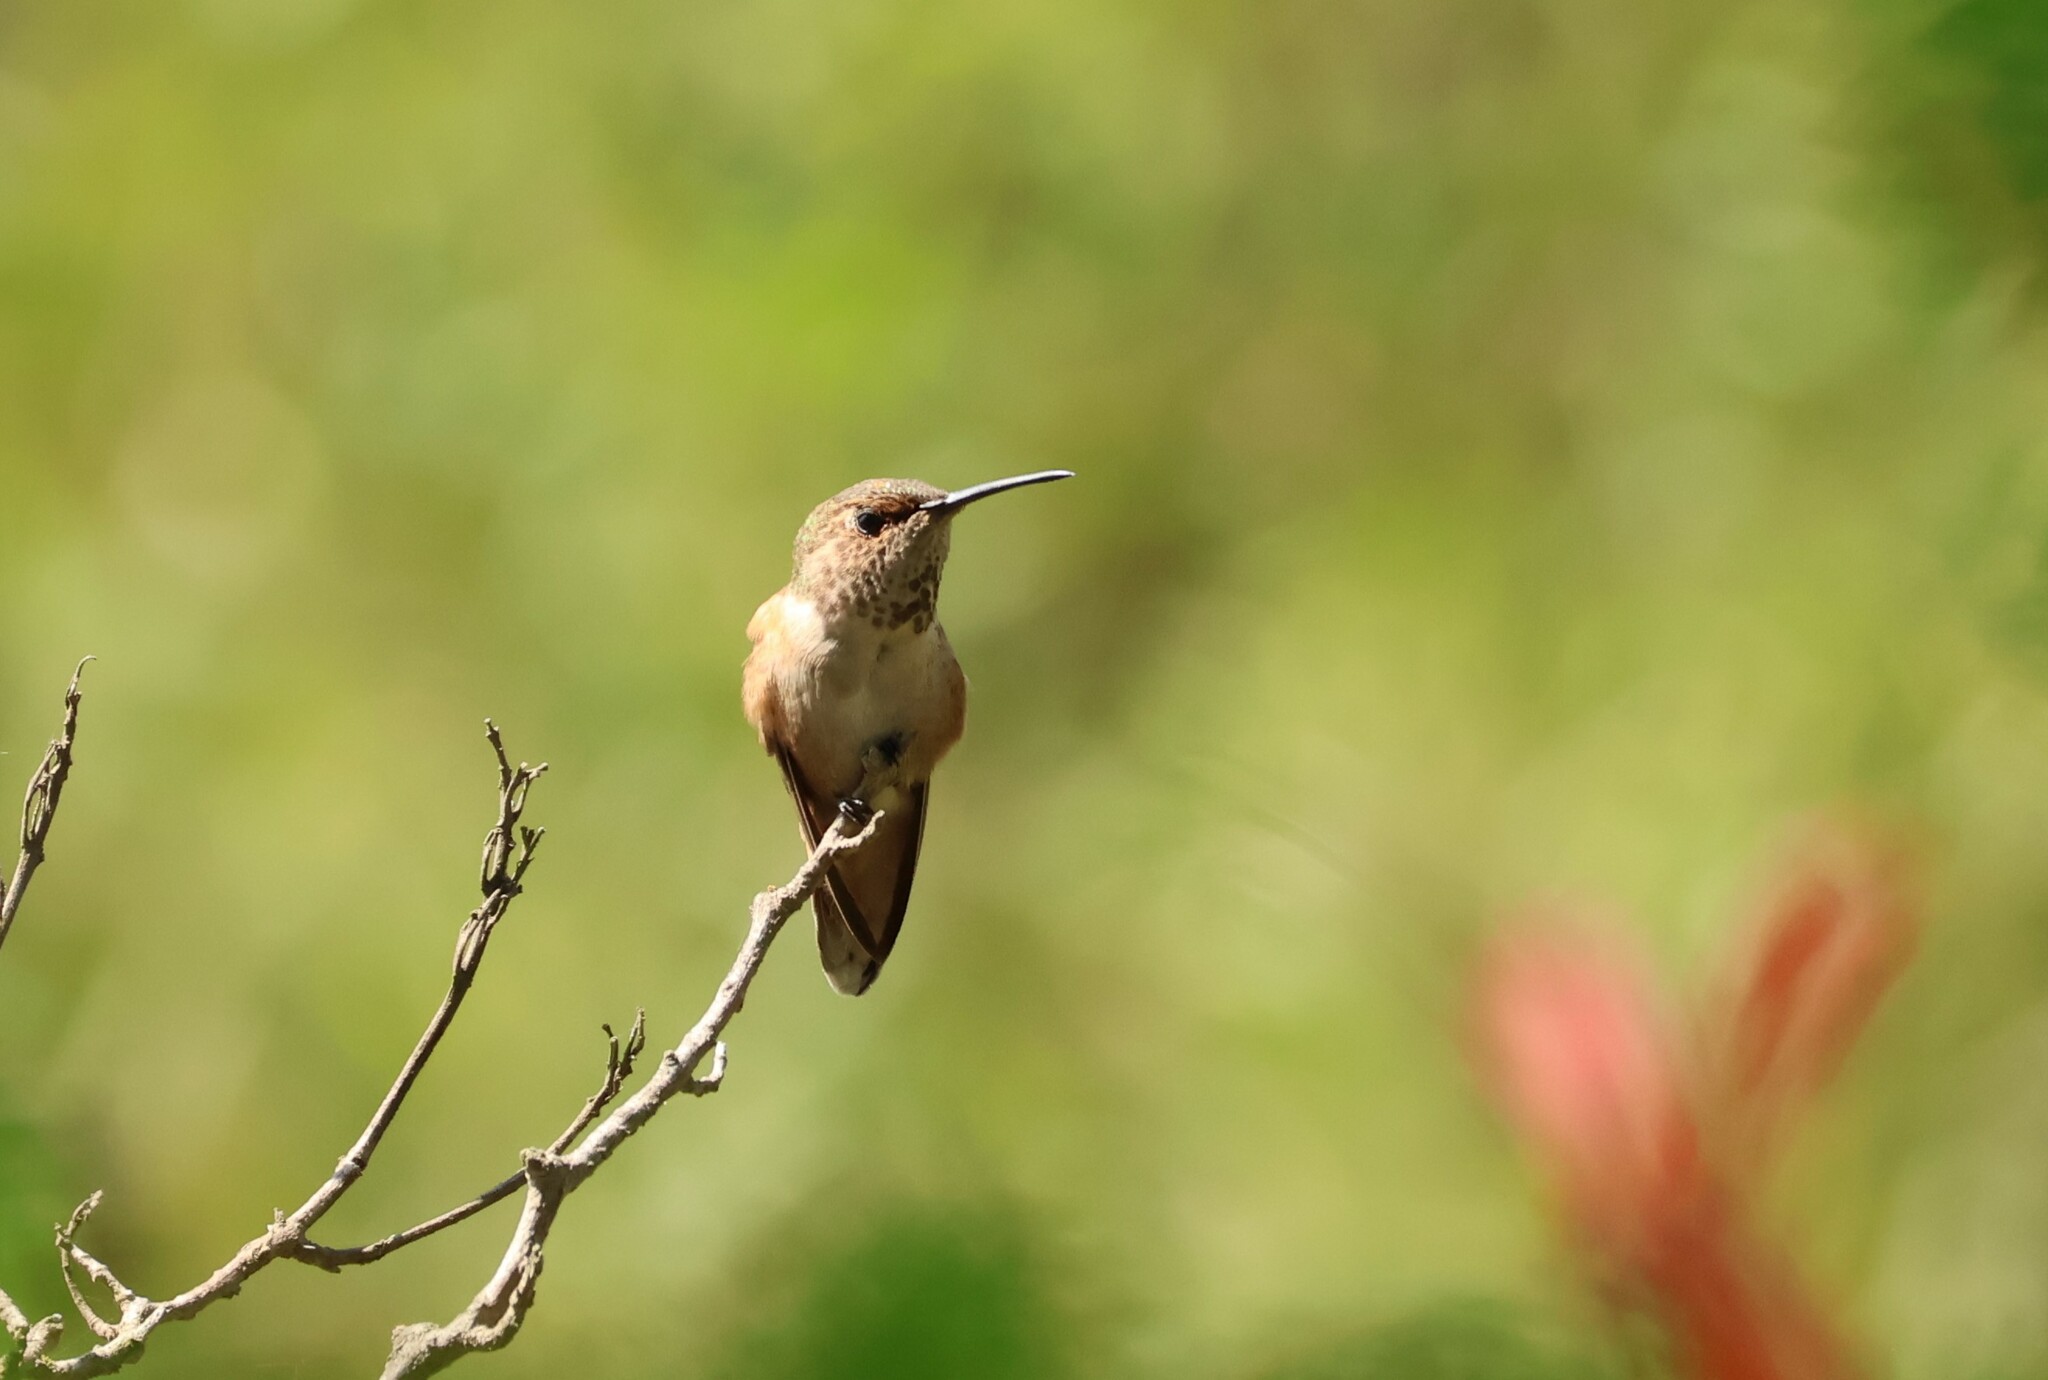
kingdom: Animalia
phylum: Chordata
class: Aves
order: Apodiformes
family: Trochilidae
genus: Selasphorus
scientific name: Selasphorus
